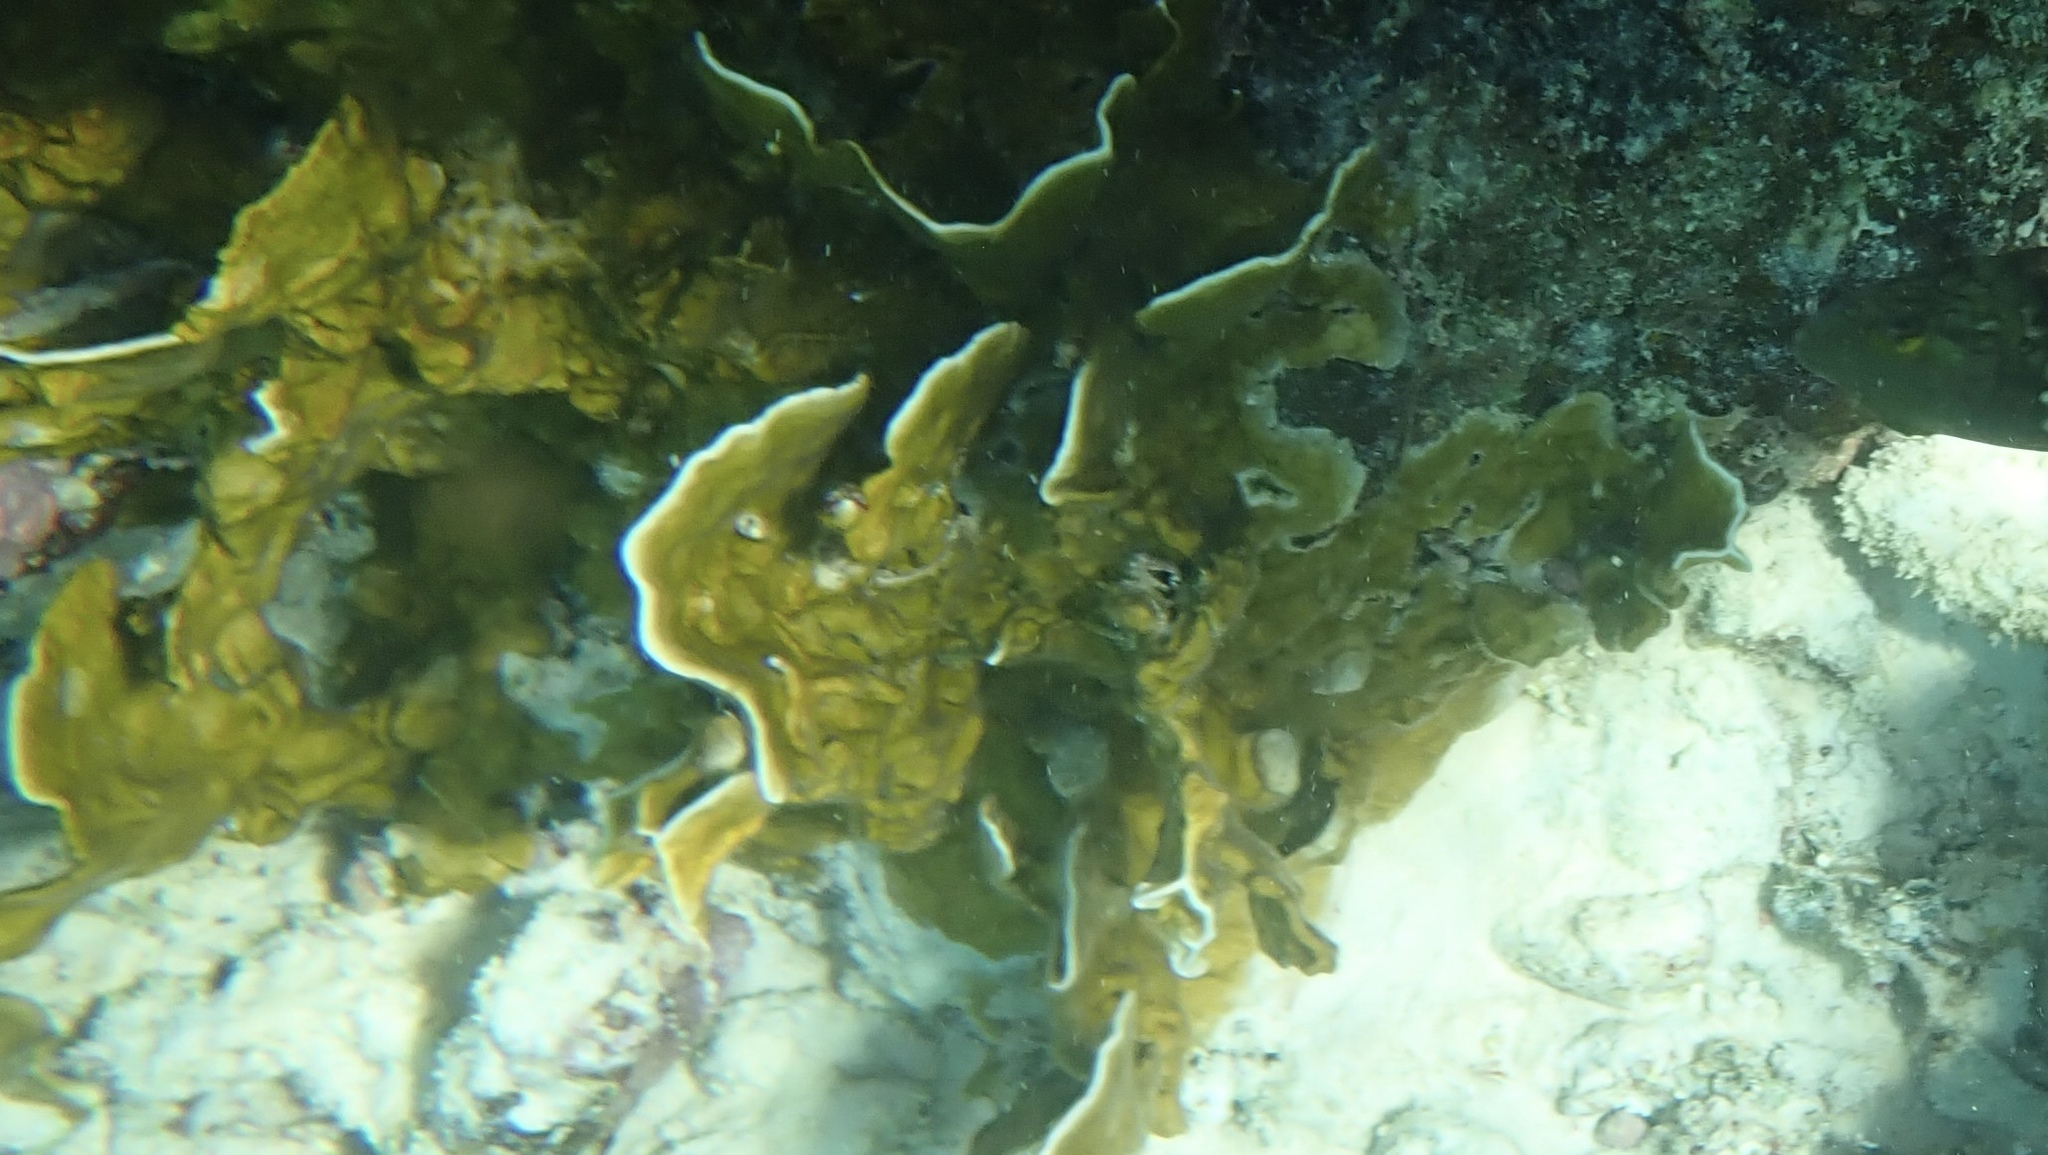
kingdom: Animalia
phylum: Cnidaria
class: Hydrozoa
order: Anthoathecata
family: Milleporidae
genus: Millepora
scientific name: Millepora complanata
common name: Bladed fire coral
